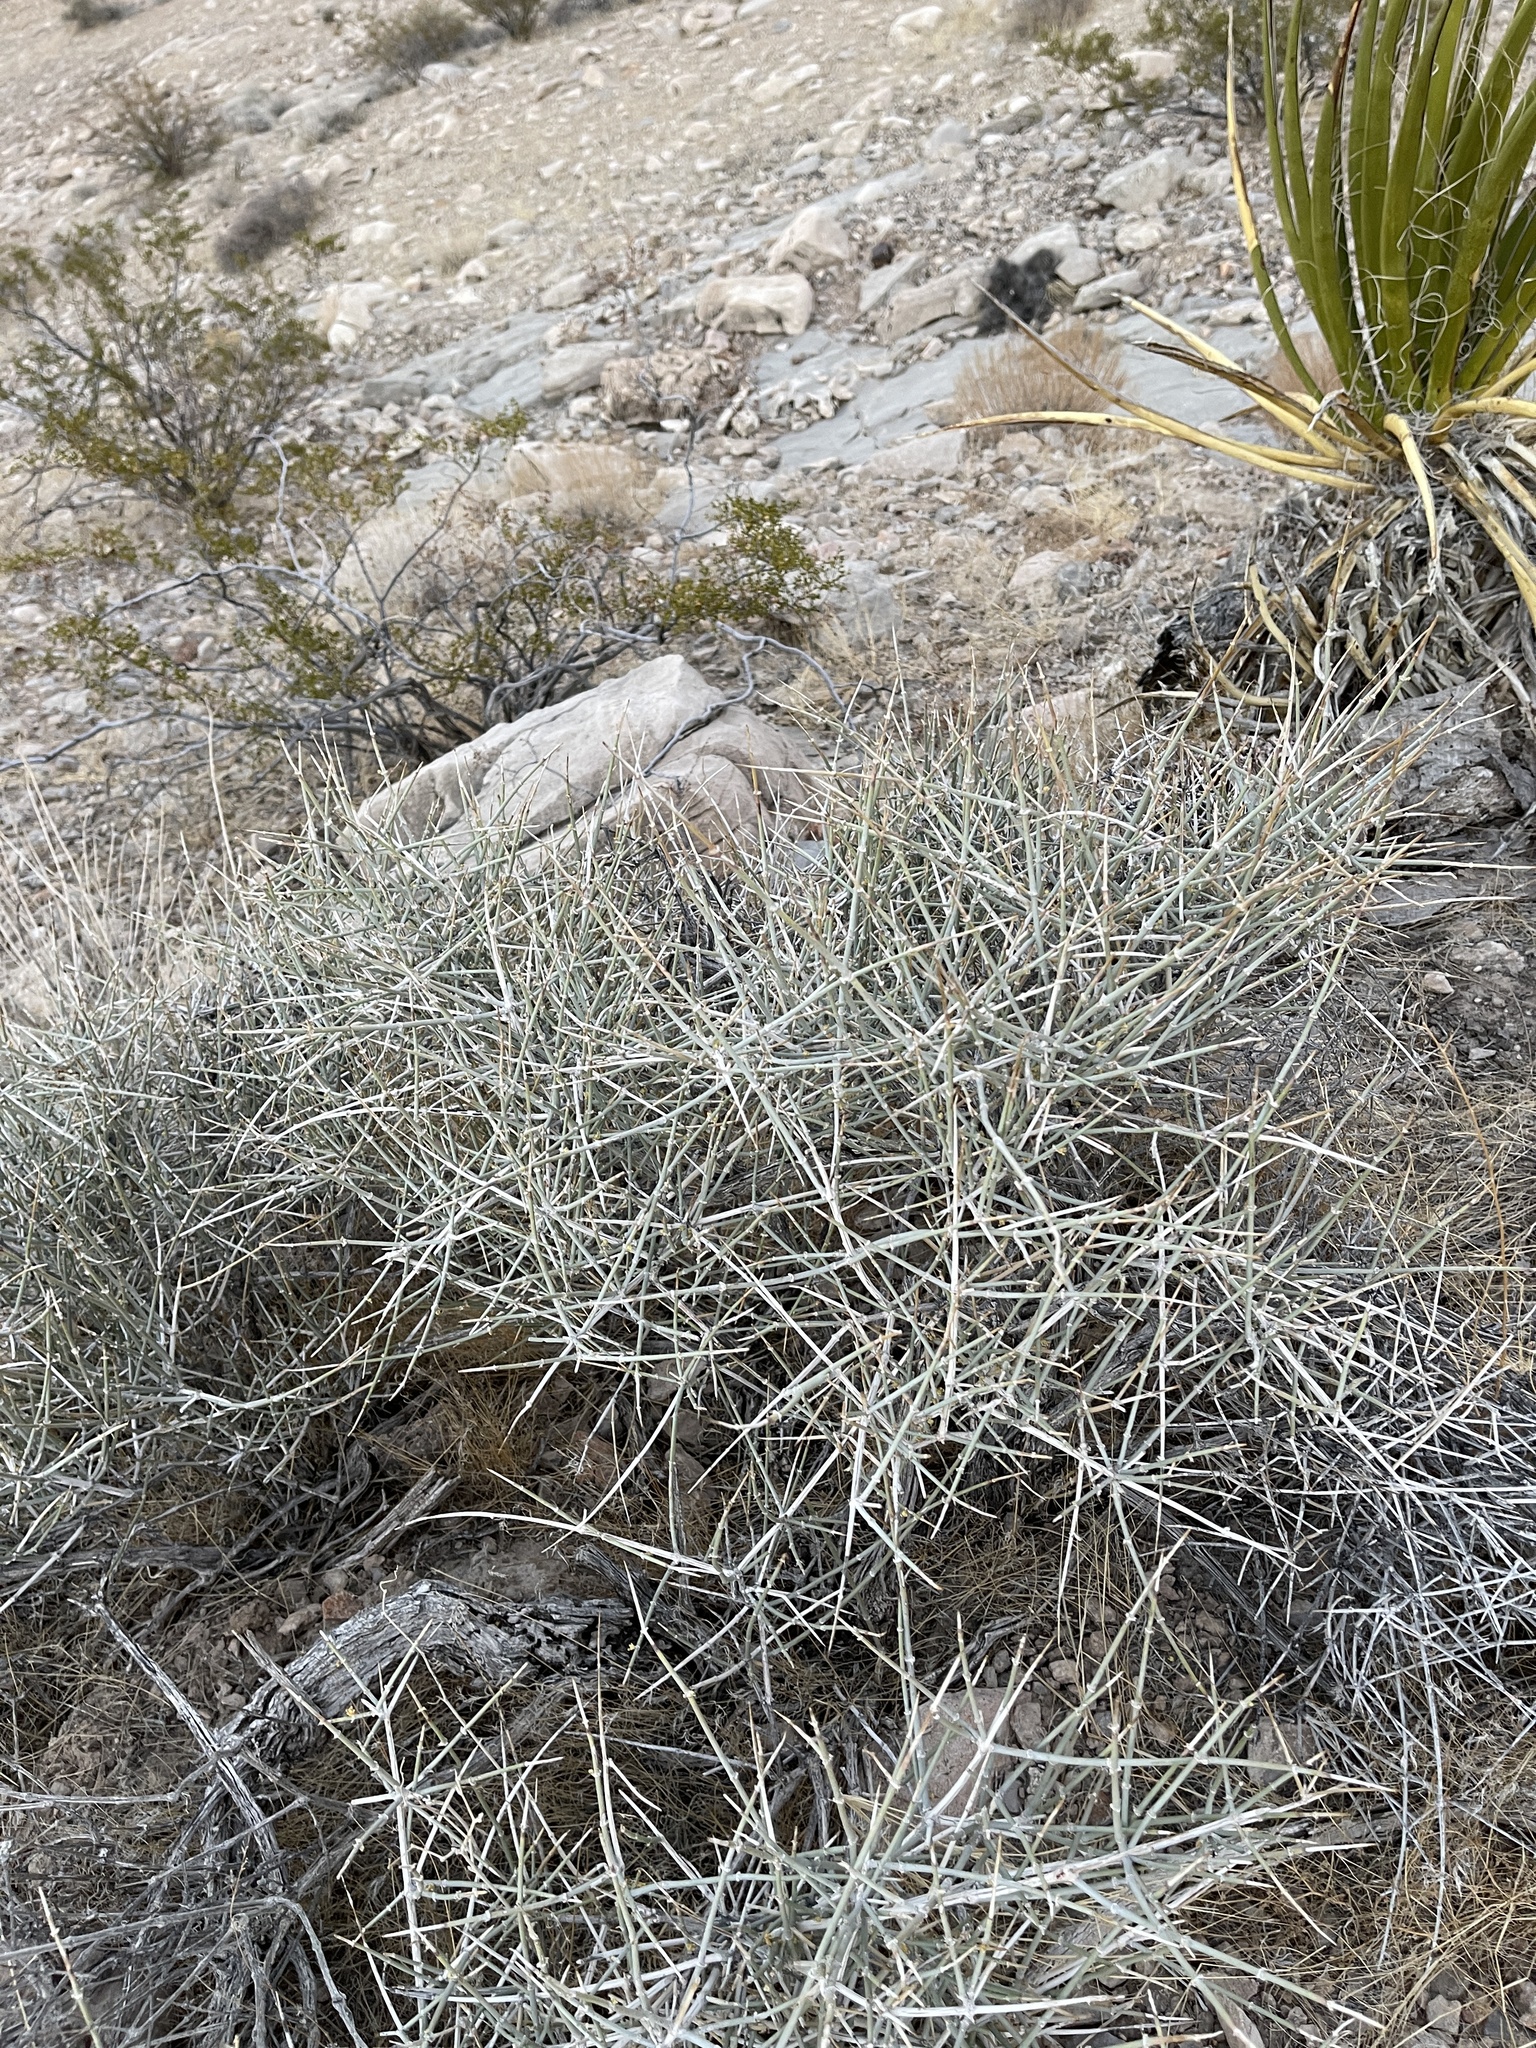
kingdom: Plantae
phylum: Tracheophyta
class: Gnetopsida
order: Ephedrales
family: Ephedraceae
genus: Ephedra
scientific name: Ephedra nevadensis
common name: Gray ephedra
